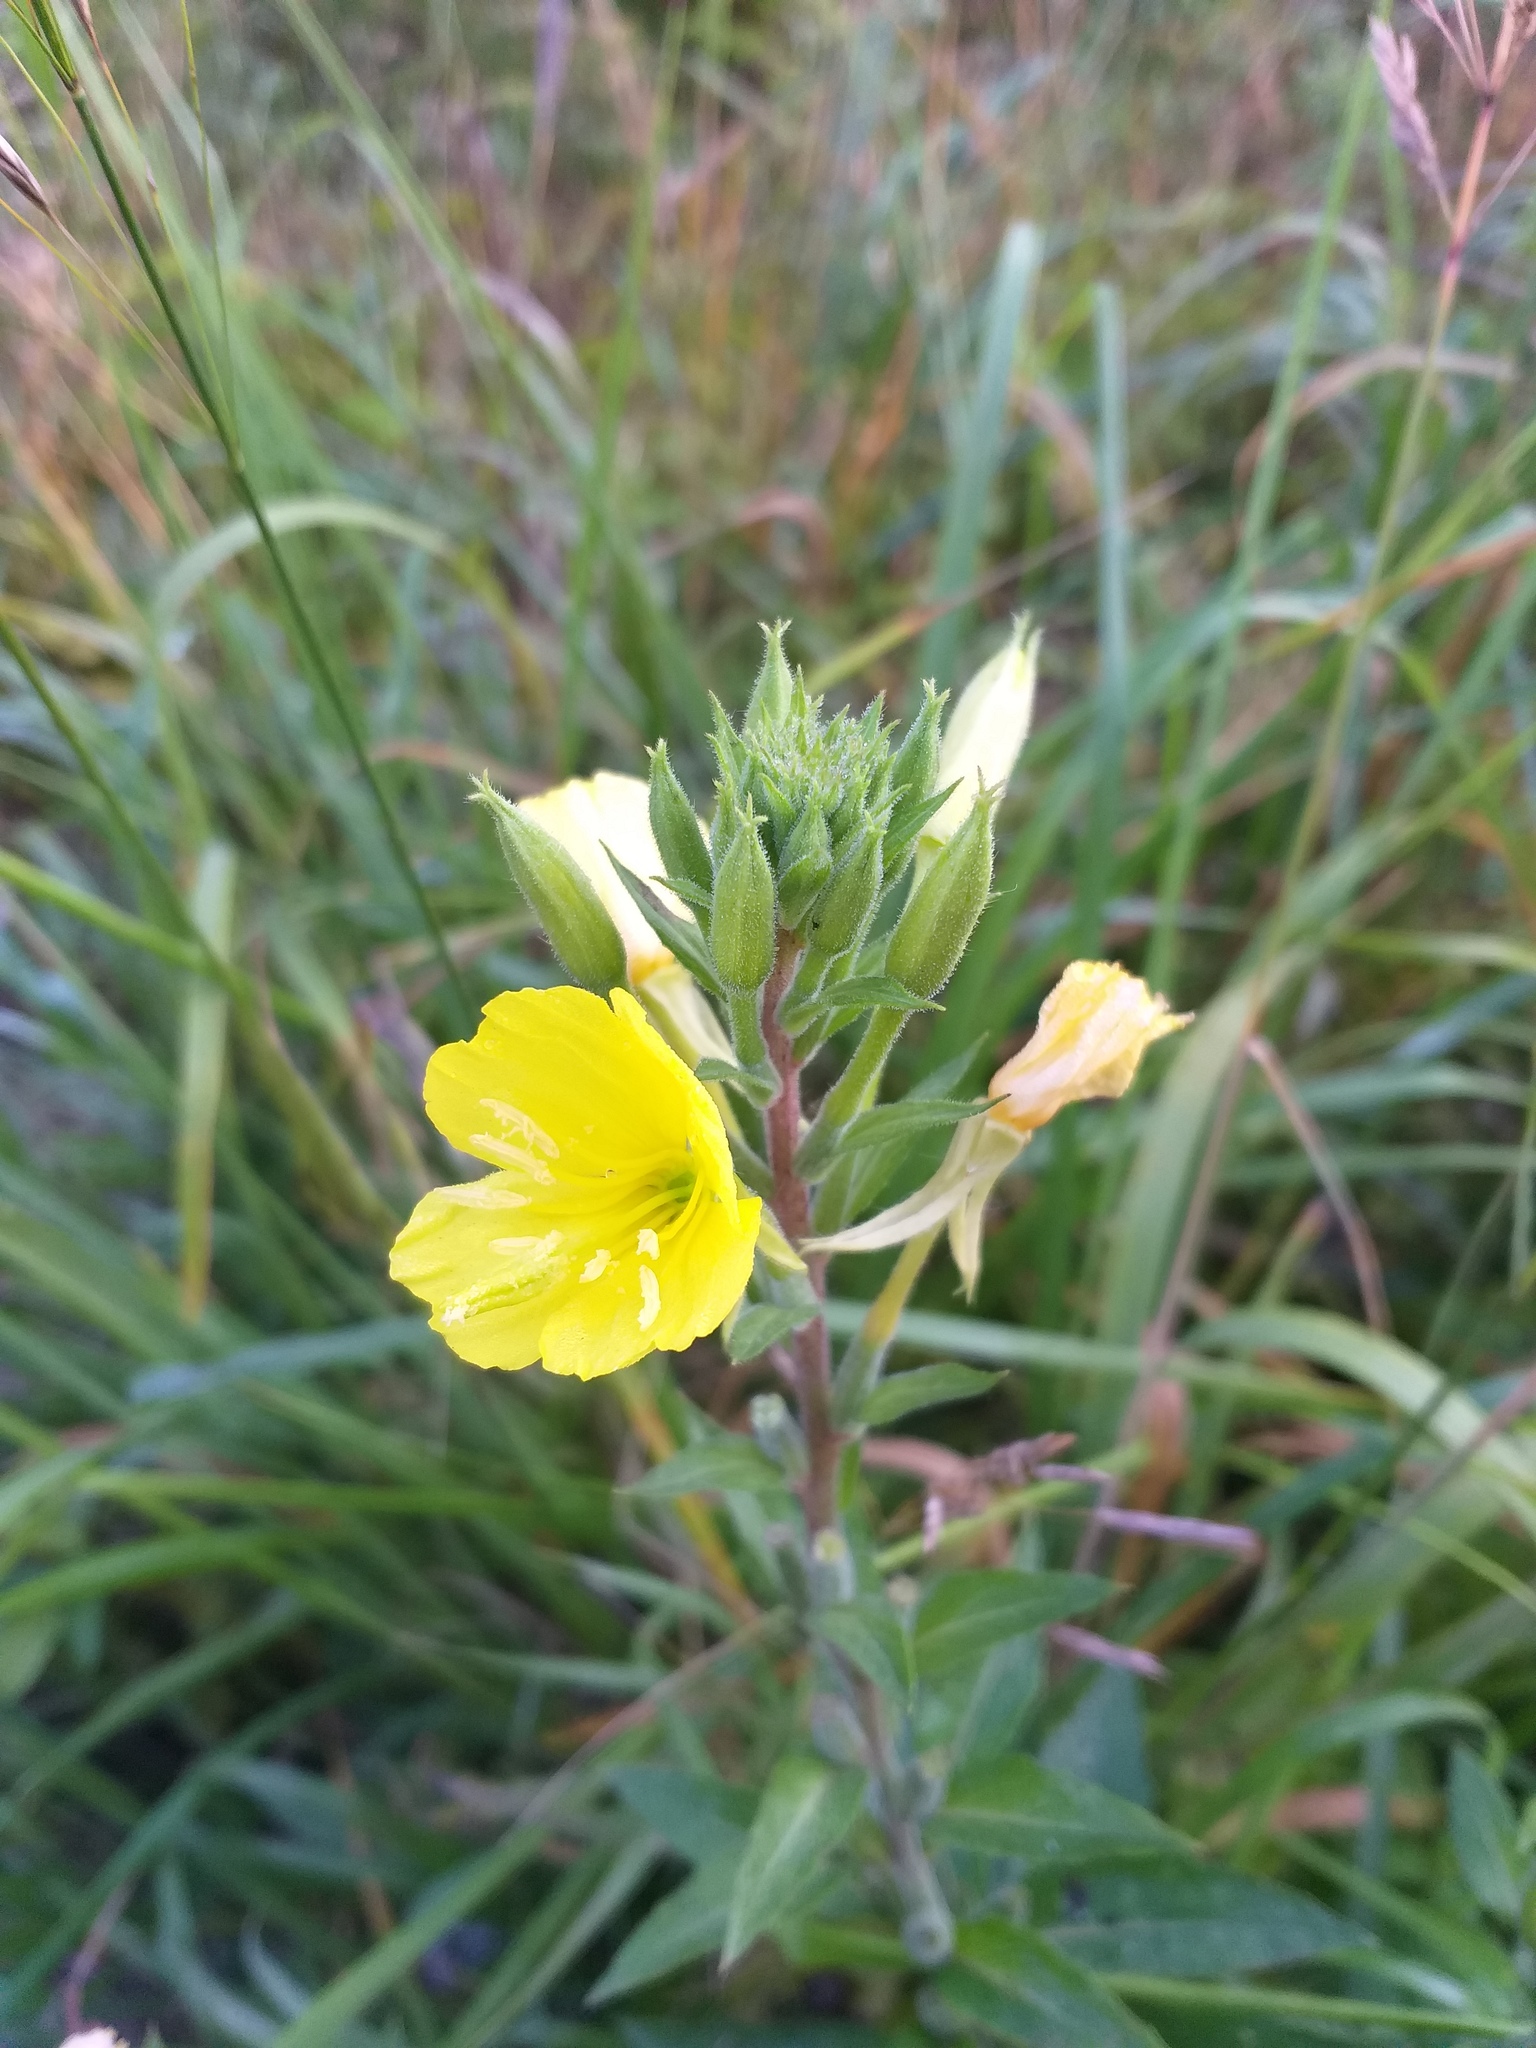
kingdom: Plantae
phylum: Tracheophyta
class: Magnoliopsida
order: Myrtales
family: Onagraceae
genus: Oenothera
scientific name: Oenothera rubricaulis
